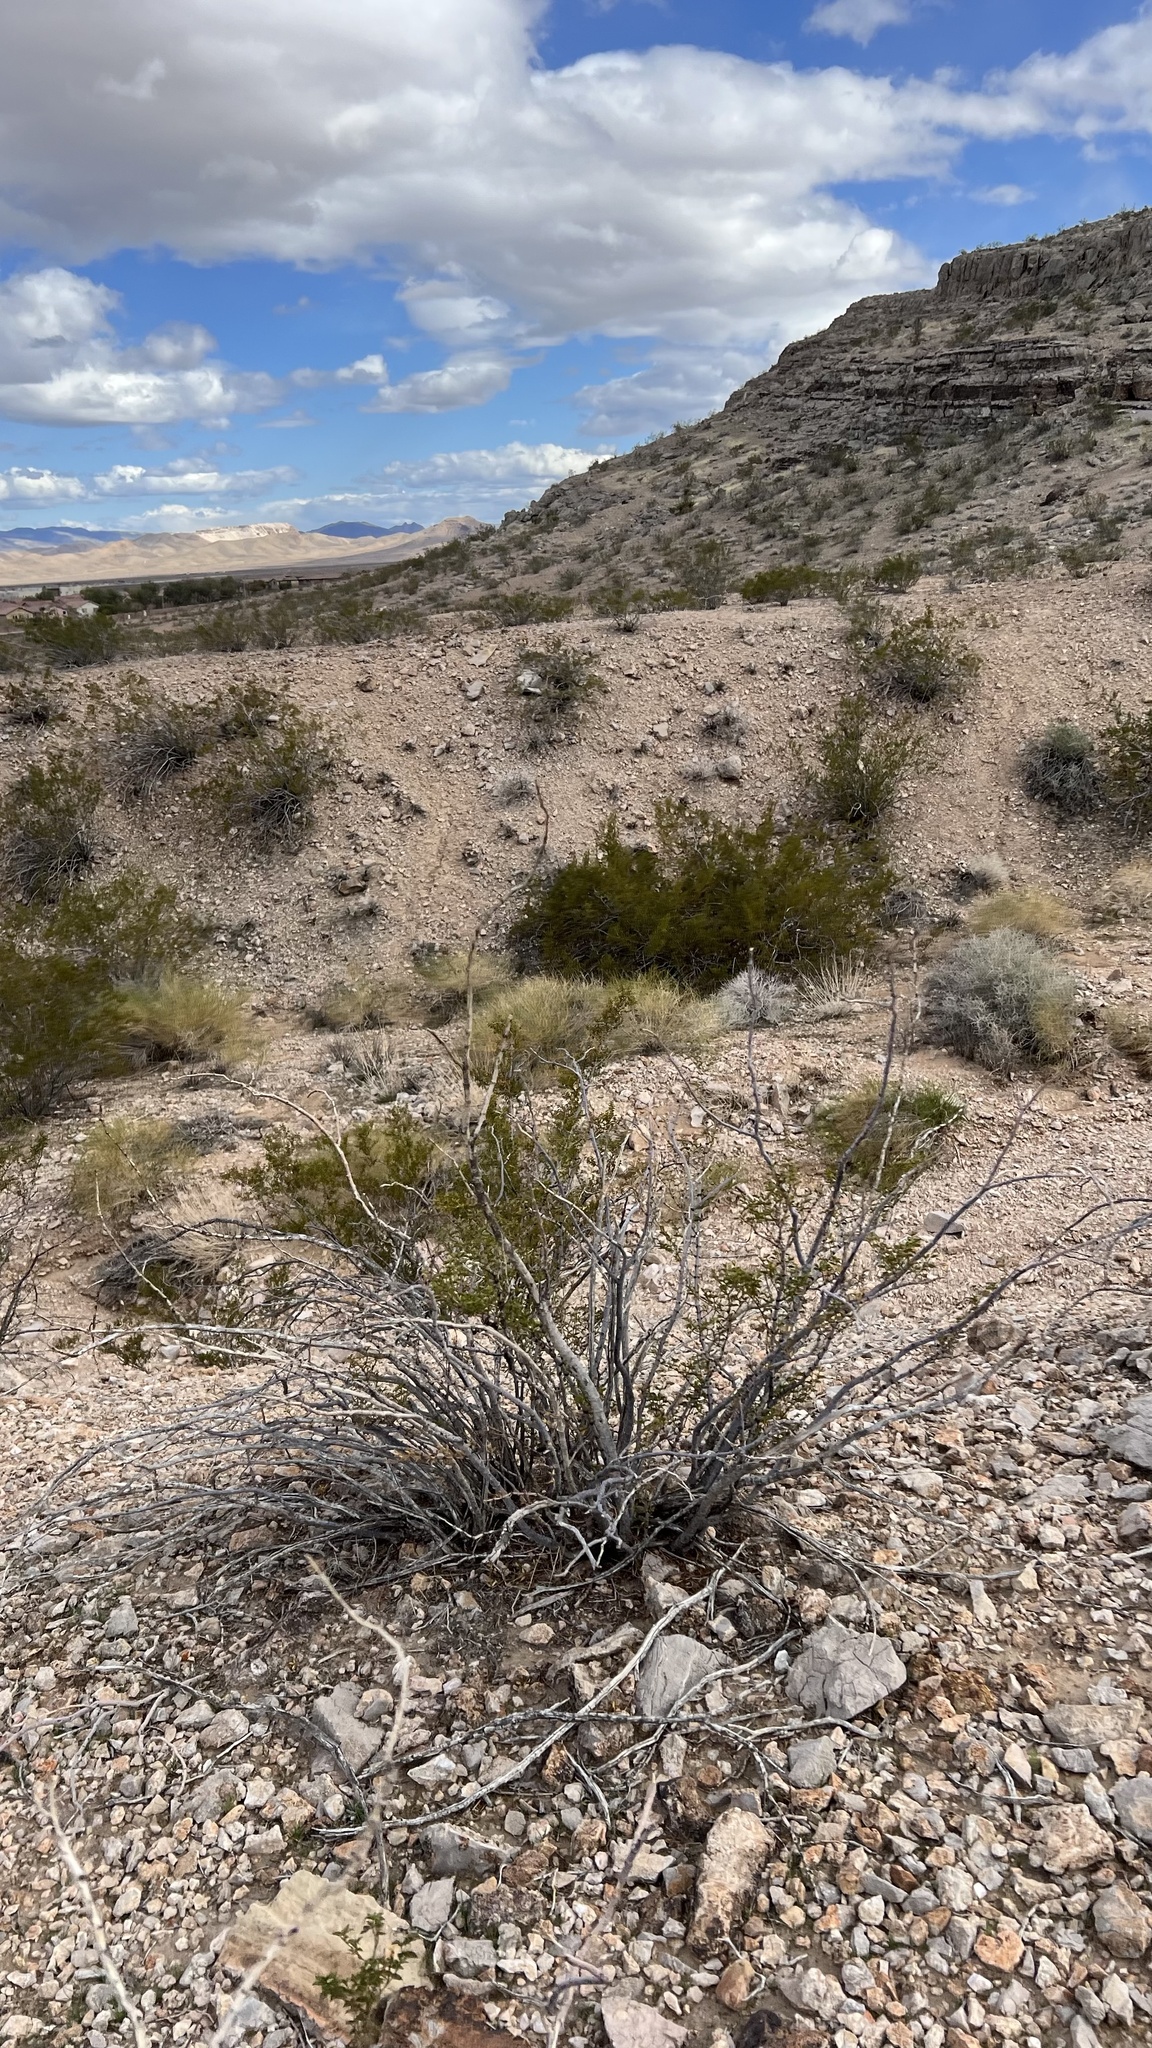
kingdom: Plantae
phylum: Tracheophyta
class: Magnoliopsida
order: Zygophyllales
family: Zygophyllaceae
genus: Larrea
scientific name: Larrea tridentata
